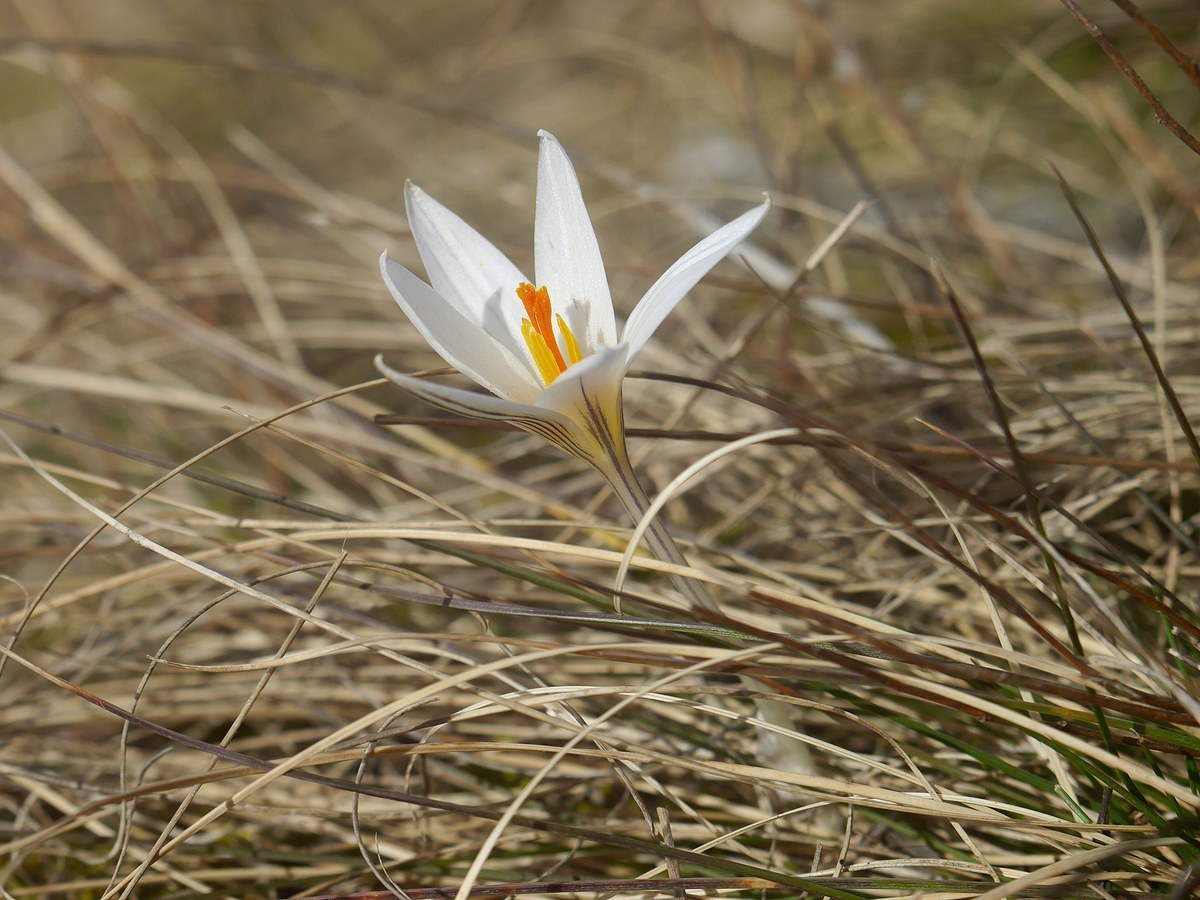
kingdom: Plantae
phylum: Tracheophyta
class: Liliopsida
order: Asparagales
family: Iridaceae
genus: Crocus
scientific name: Crocus reticulatus
